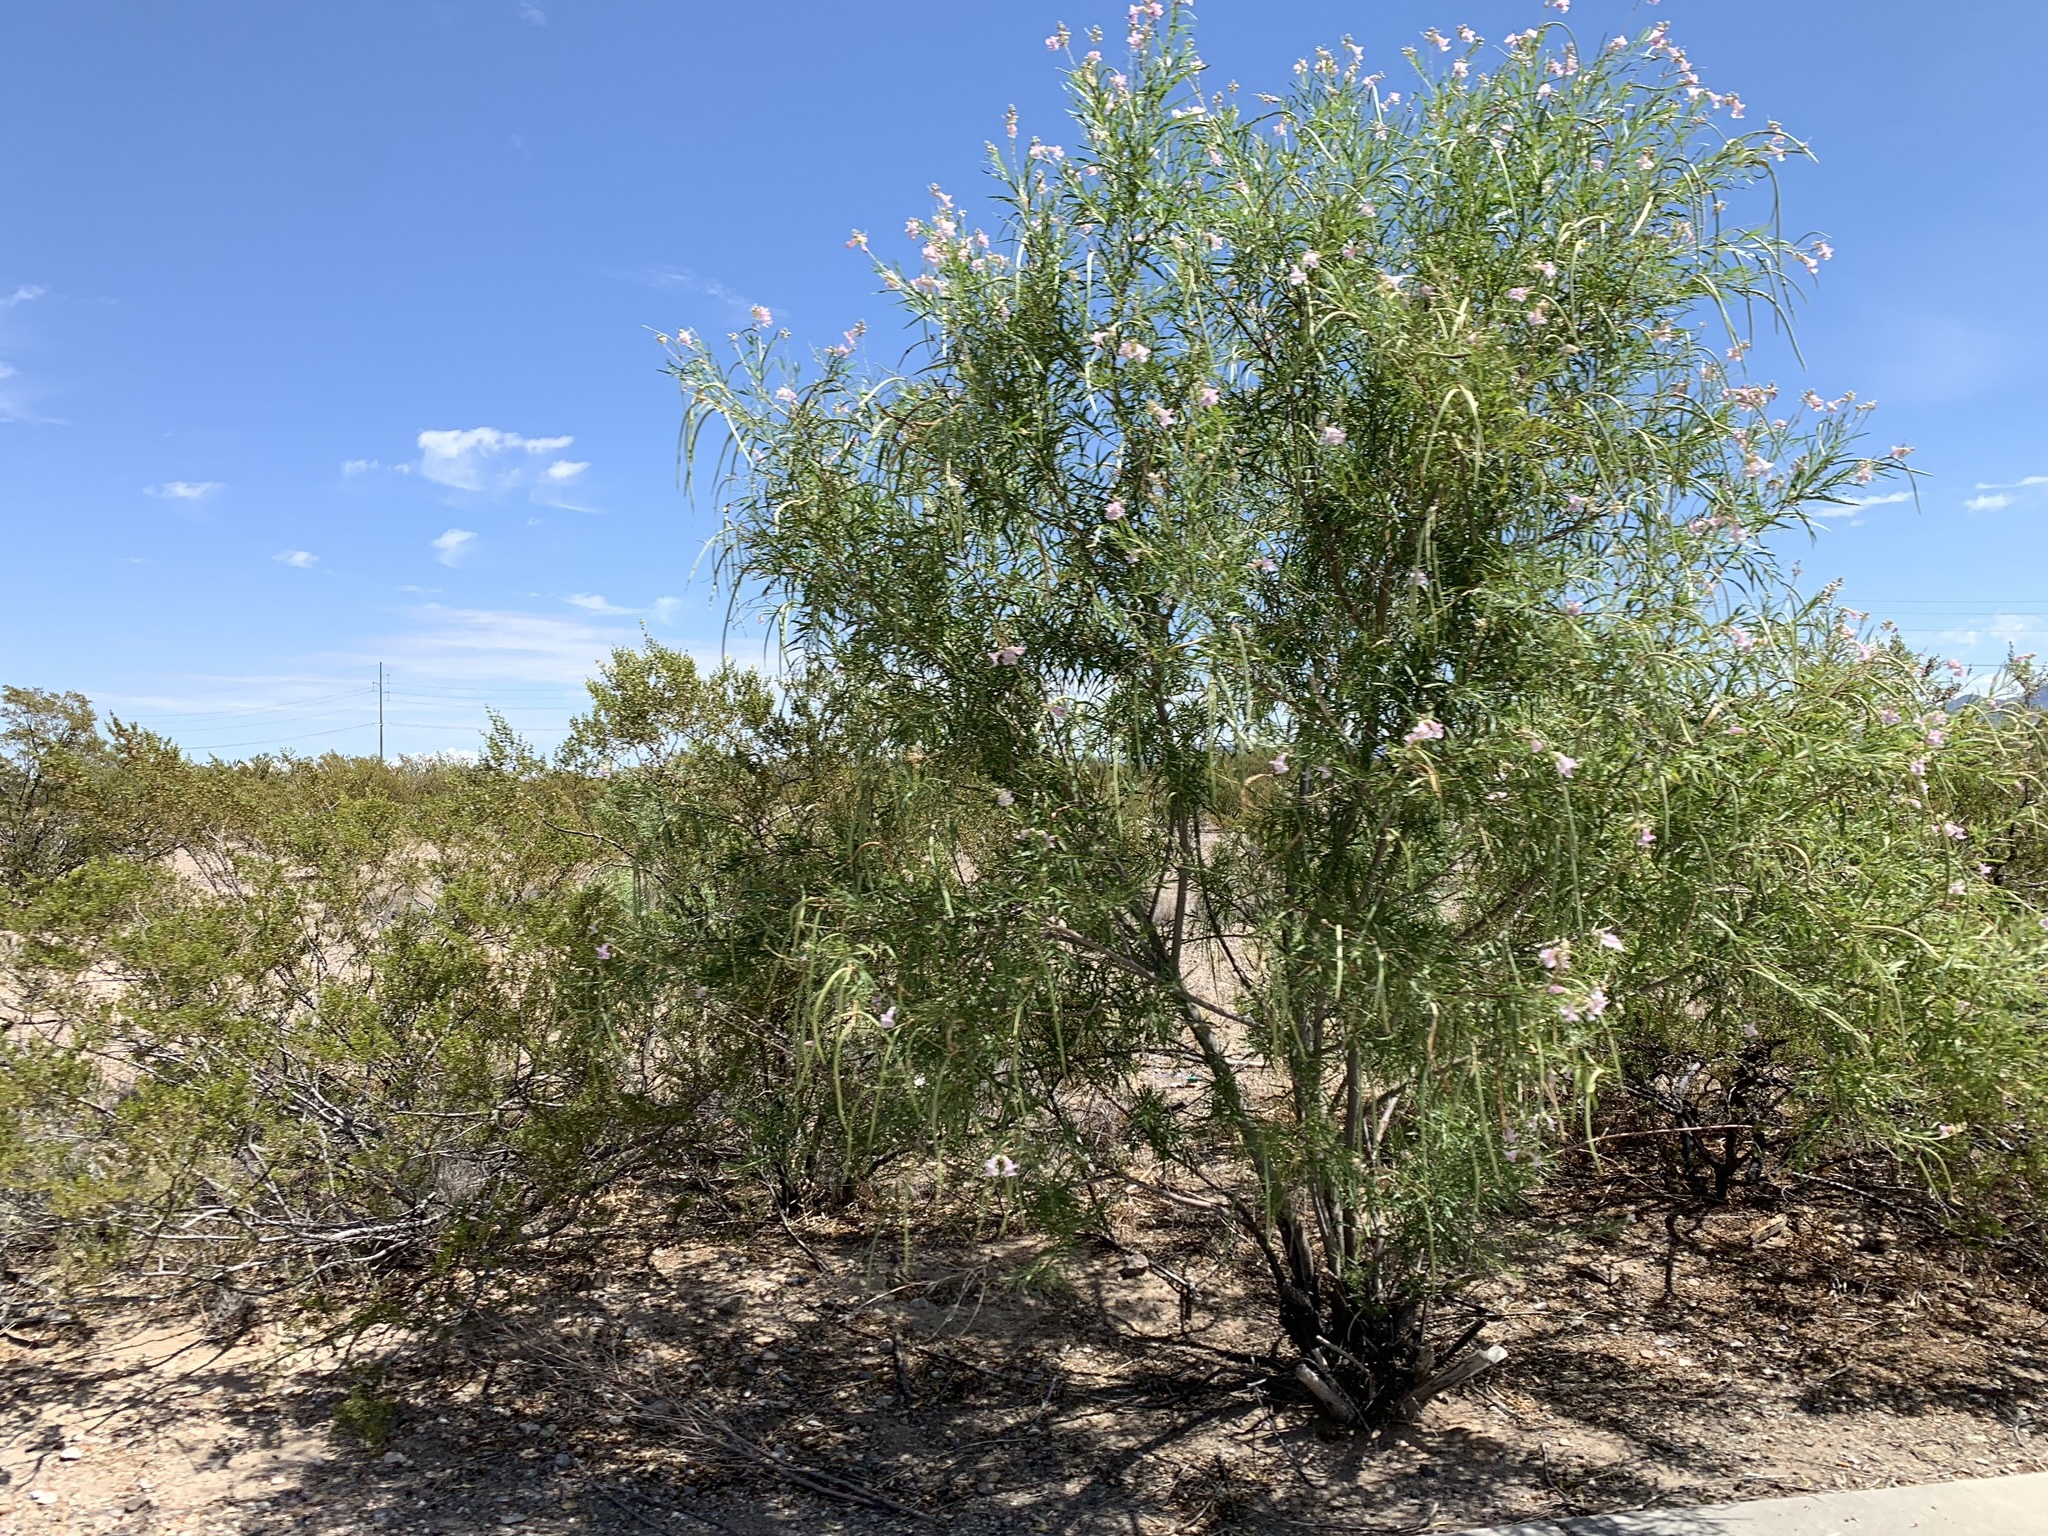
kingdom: Plantae
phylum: Tracheophyta
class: Magnoliopsida
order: Lamiales
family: Bignoniaceae
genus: Chilopsis
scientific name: Chilopsis linearis
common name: Desert-willow
